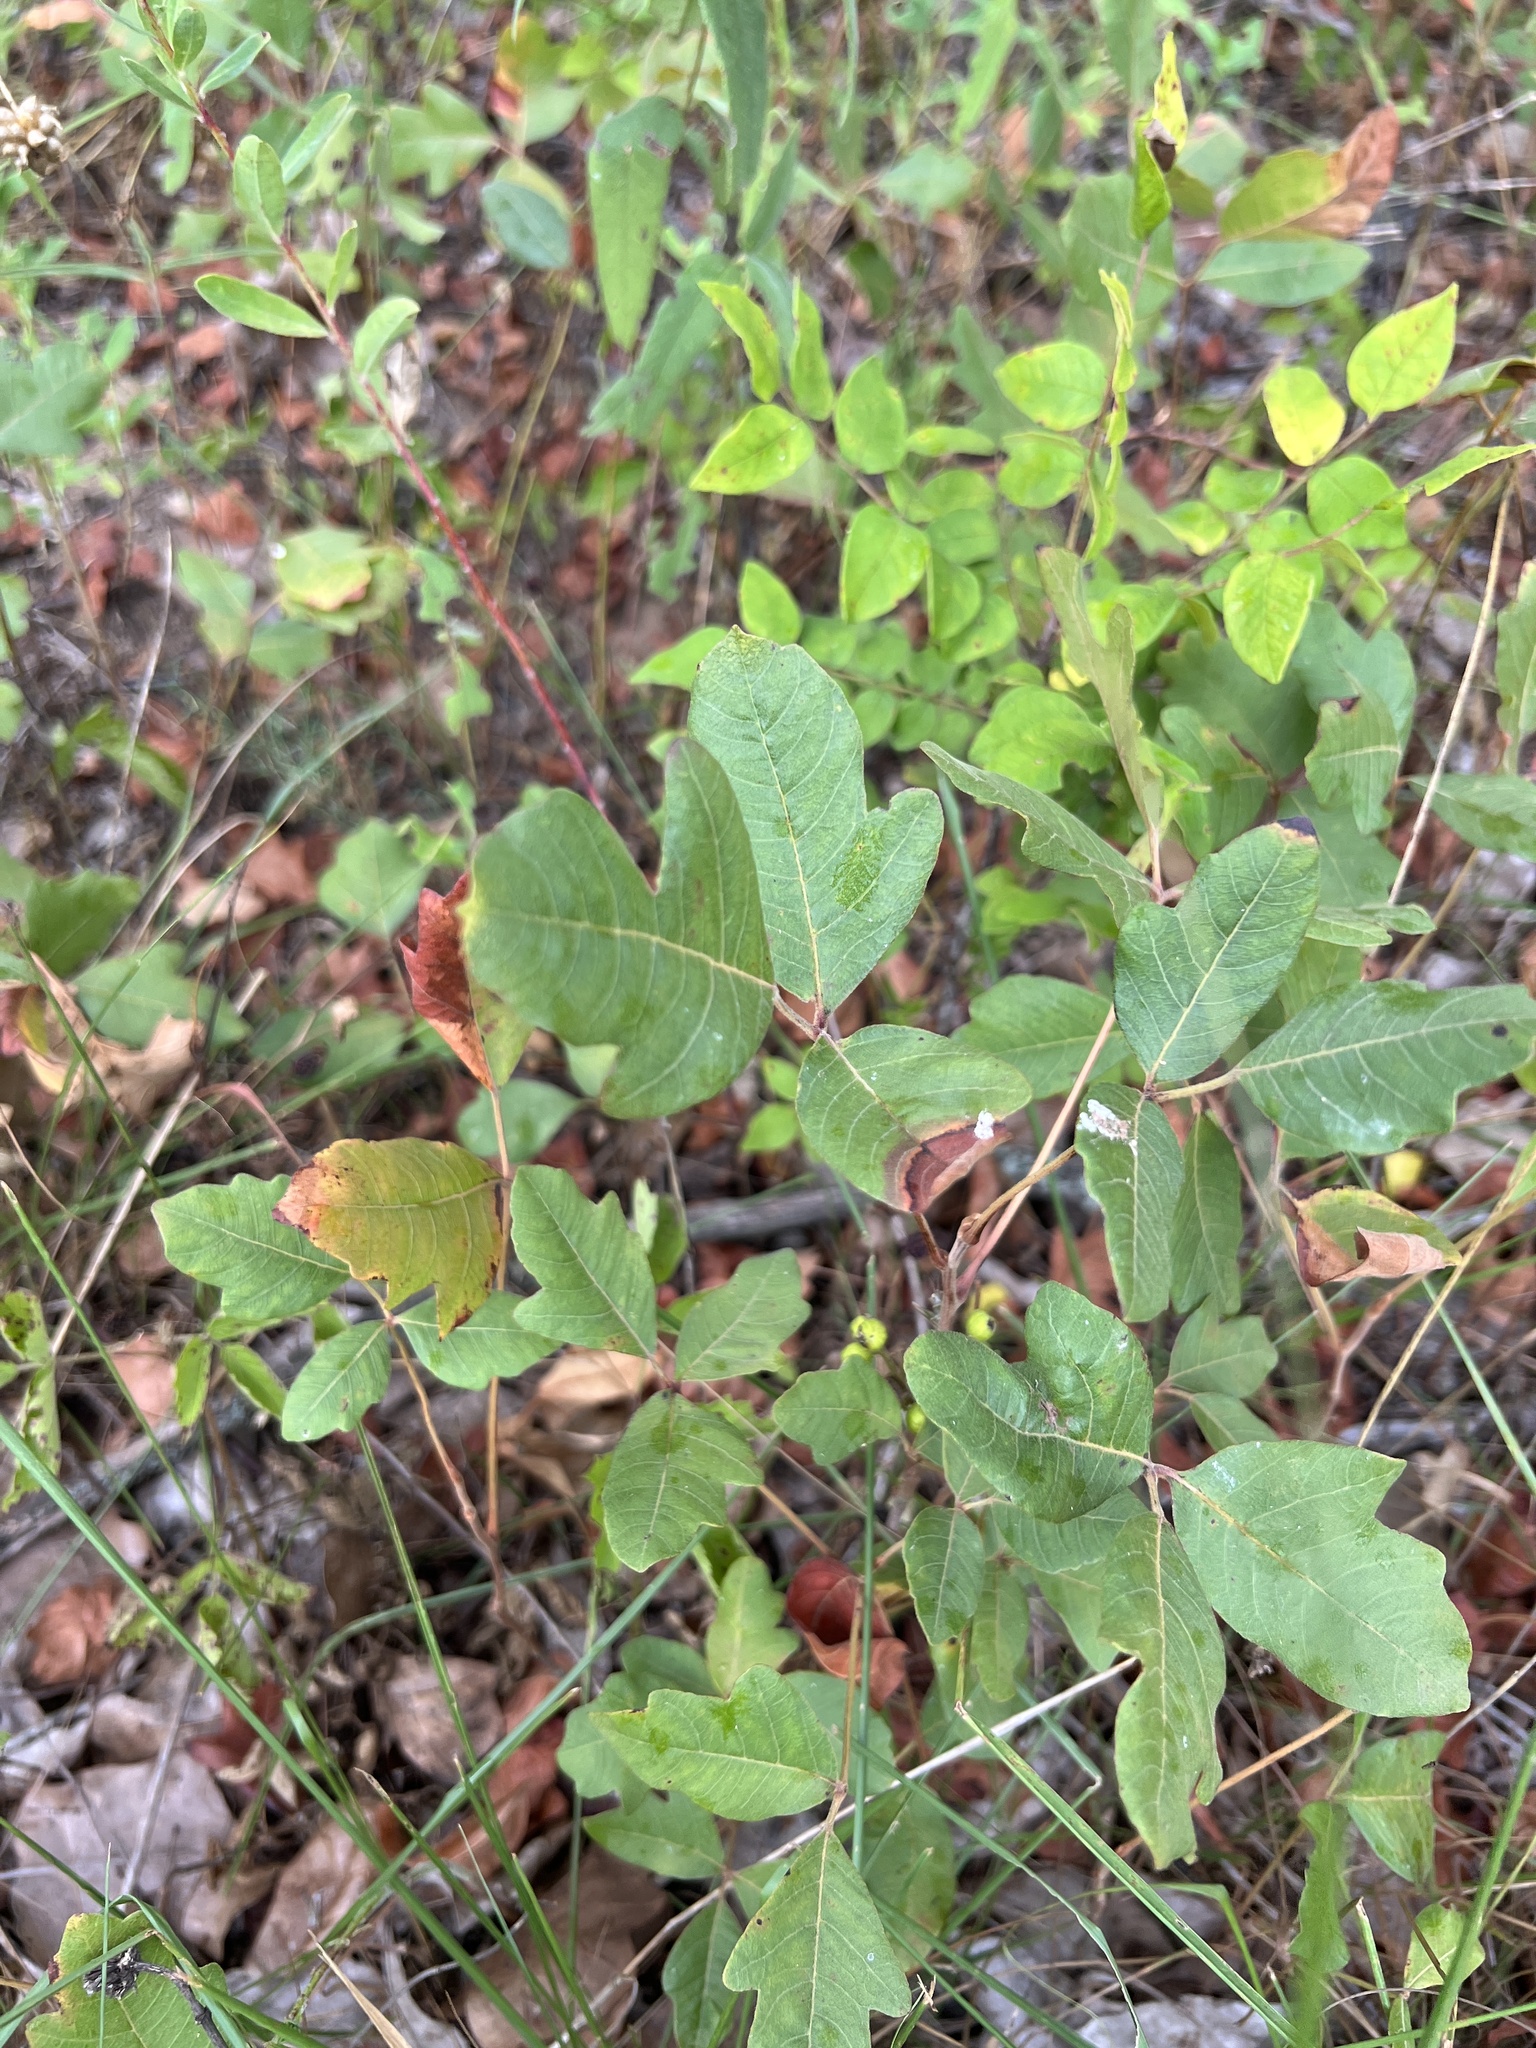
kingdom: Plantae
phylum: Tracheophyta
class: Magnoliopsida
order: Sapindales
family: Anacardiaceae
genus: Toxicodendron
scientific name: Toxicodendron pubescens
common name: Eastern poison-oak
